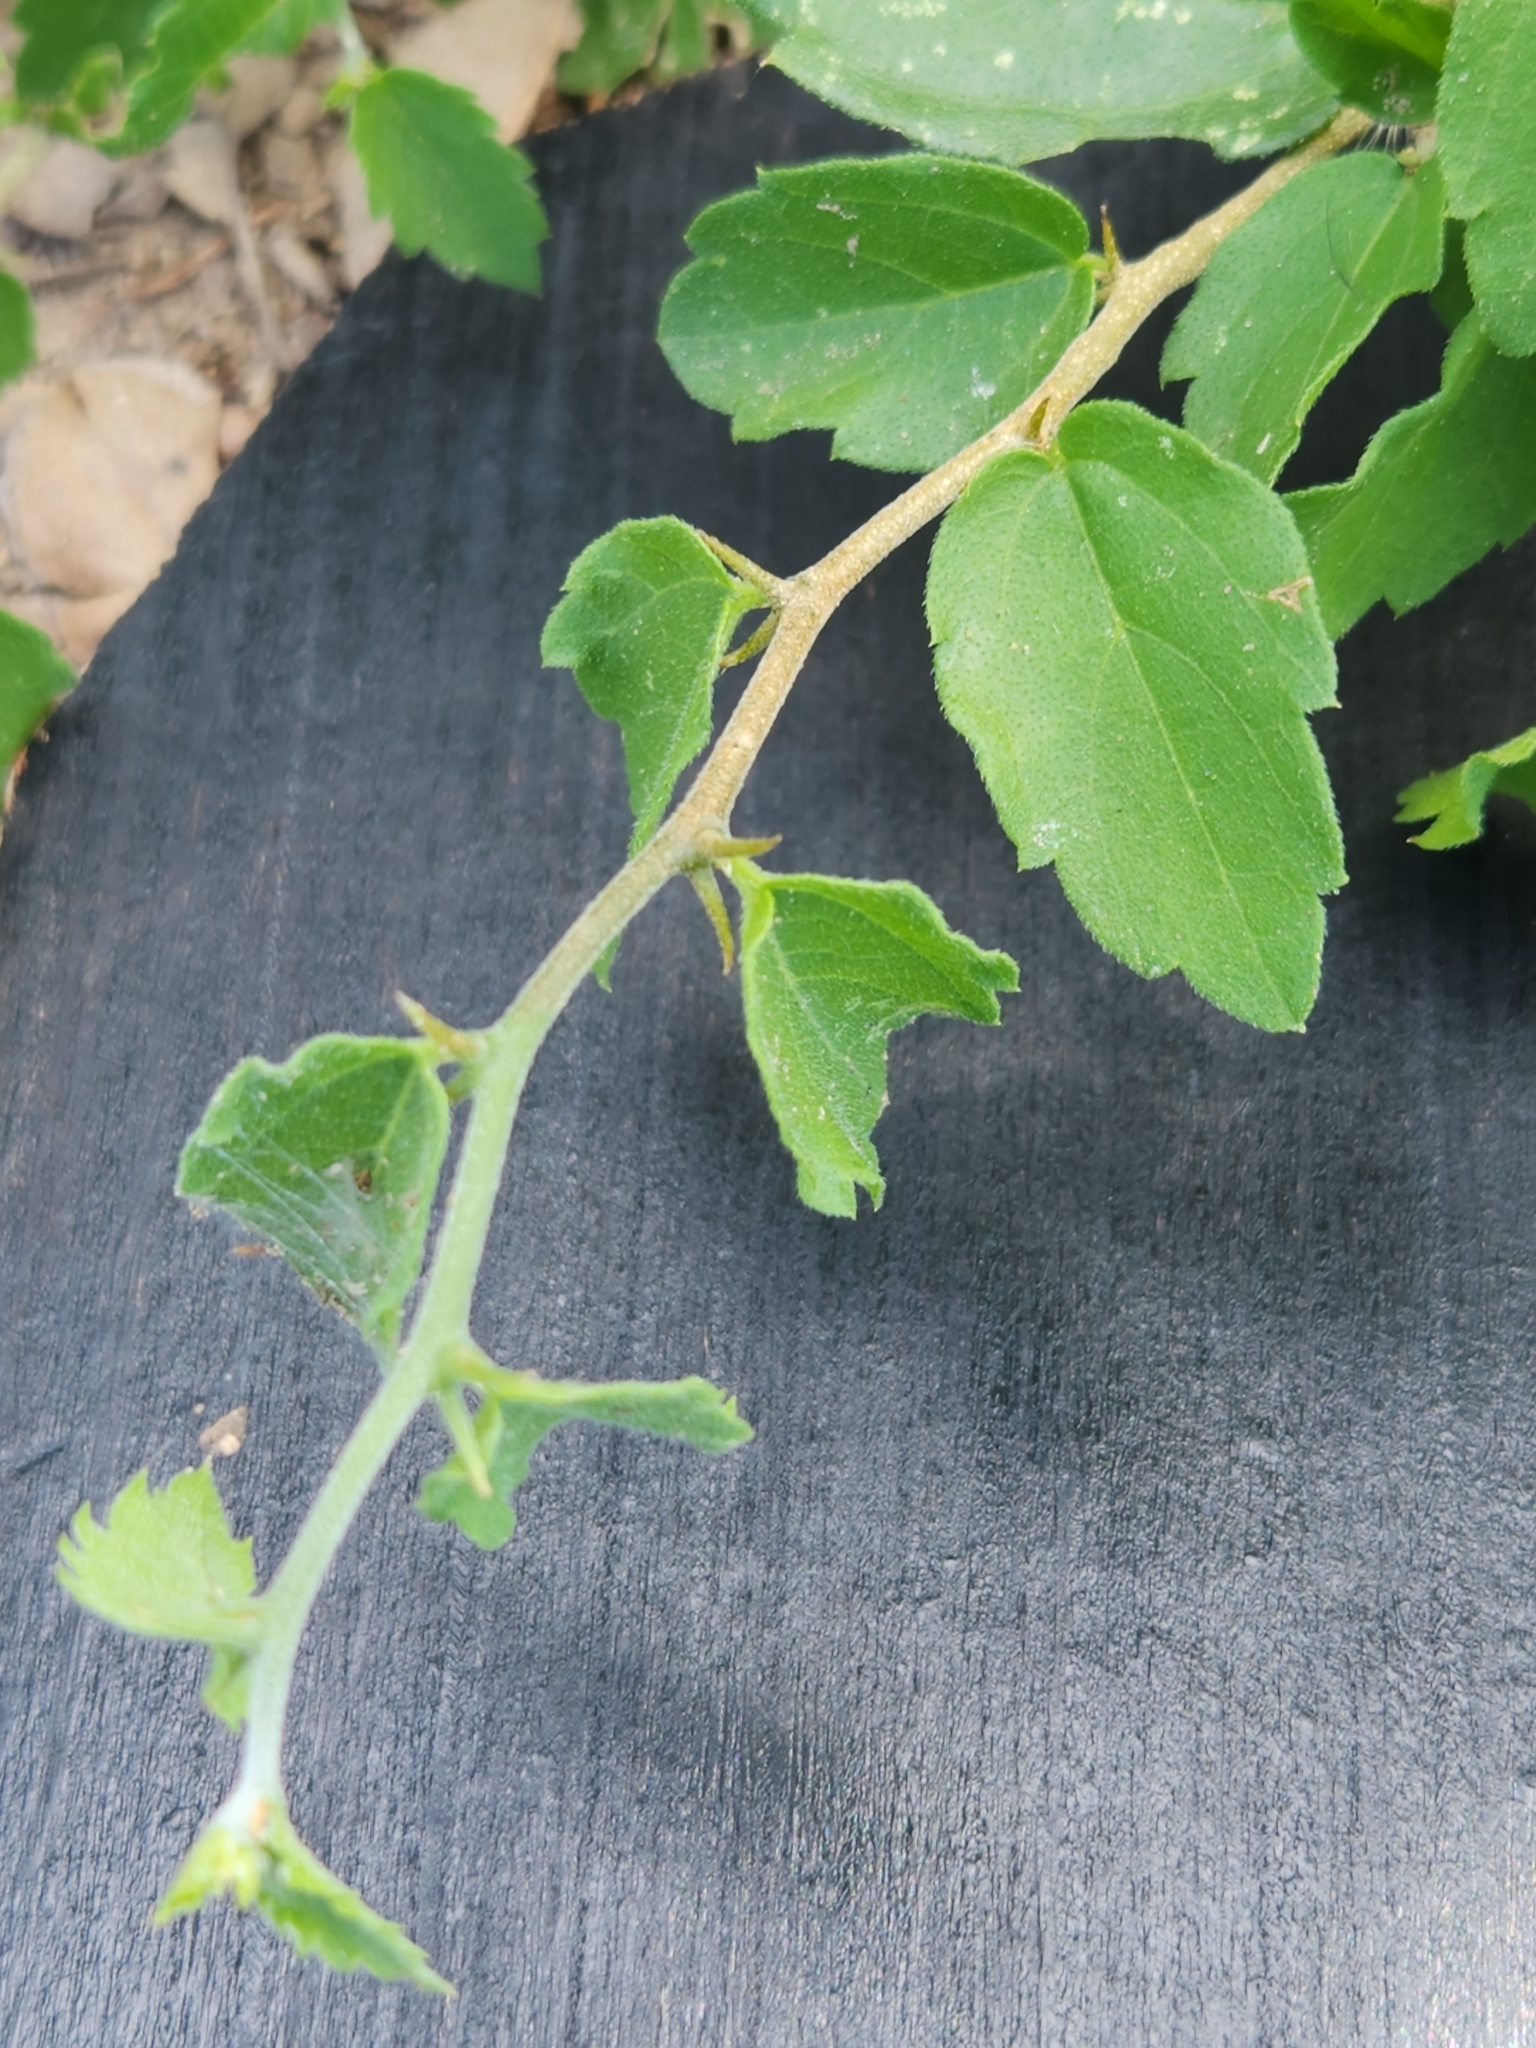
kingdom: Plantae
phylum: Tracheophyta
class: Magnoliopsida
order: Rosales
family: Cannabaceae
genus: Celtis
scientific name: Celtis pallida
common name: Desert hackberry
